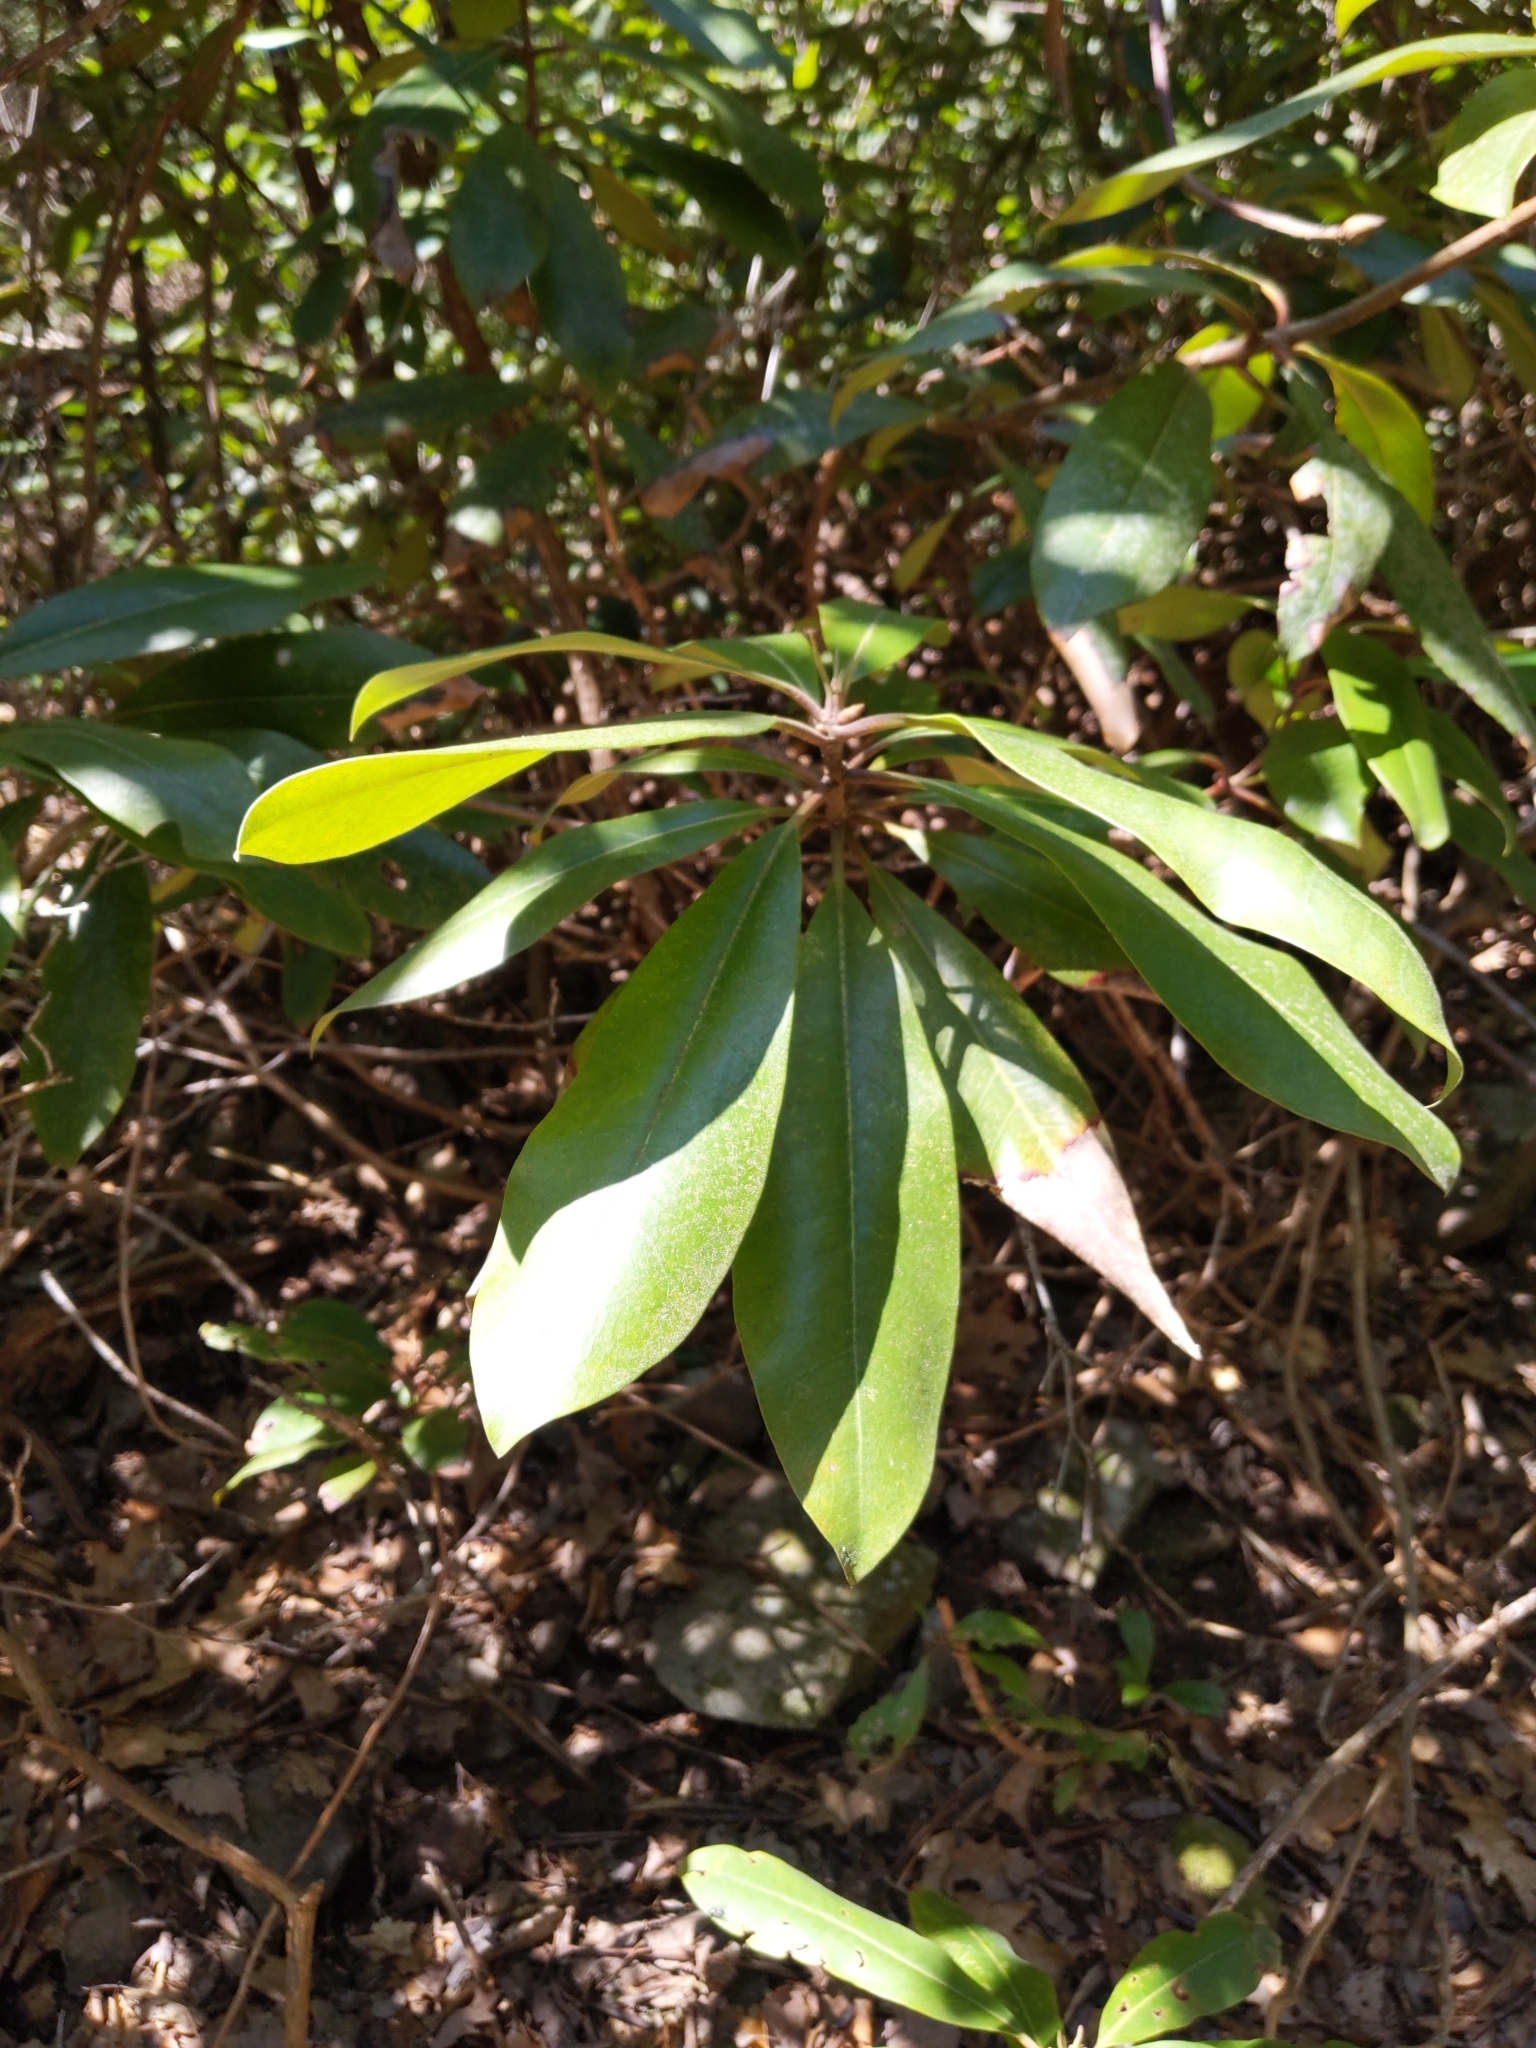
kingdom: Plantae
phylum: Tracheophyta
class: Magnoliopsida
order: Ericales
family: Ericaceae
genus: Rhododendron
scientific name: Rhododendron maximum
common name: Great rhododendron
